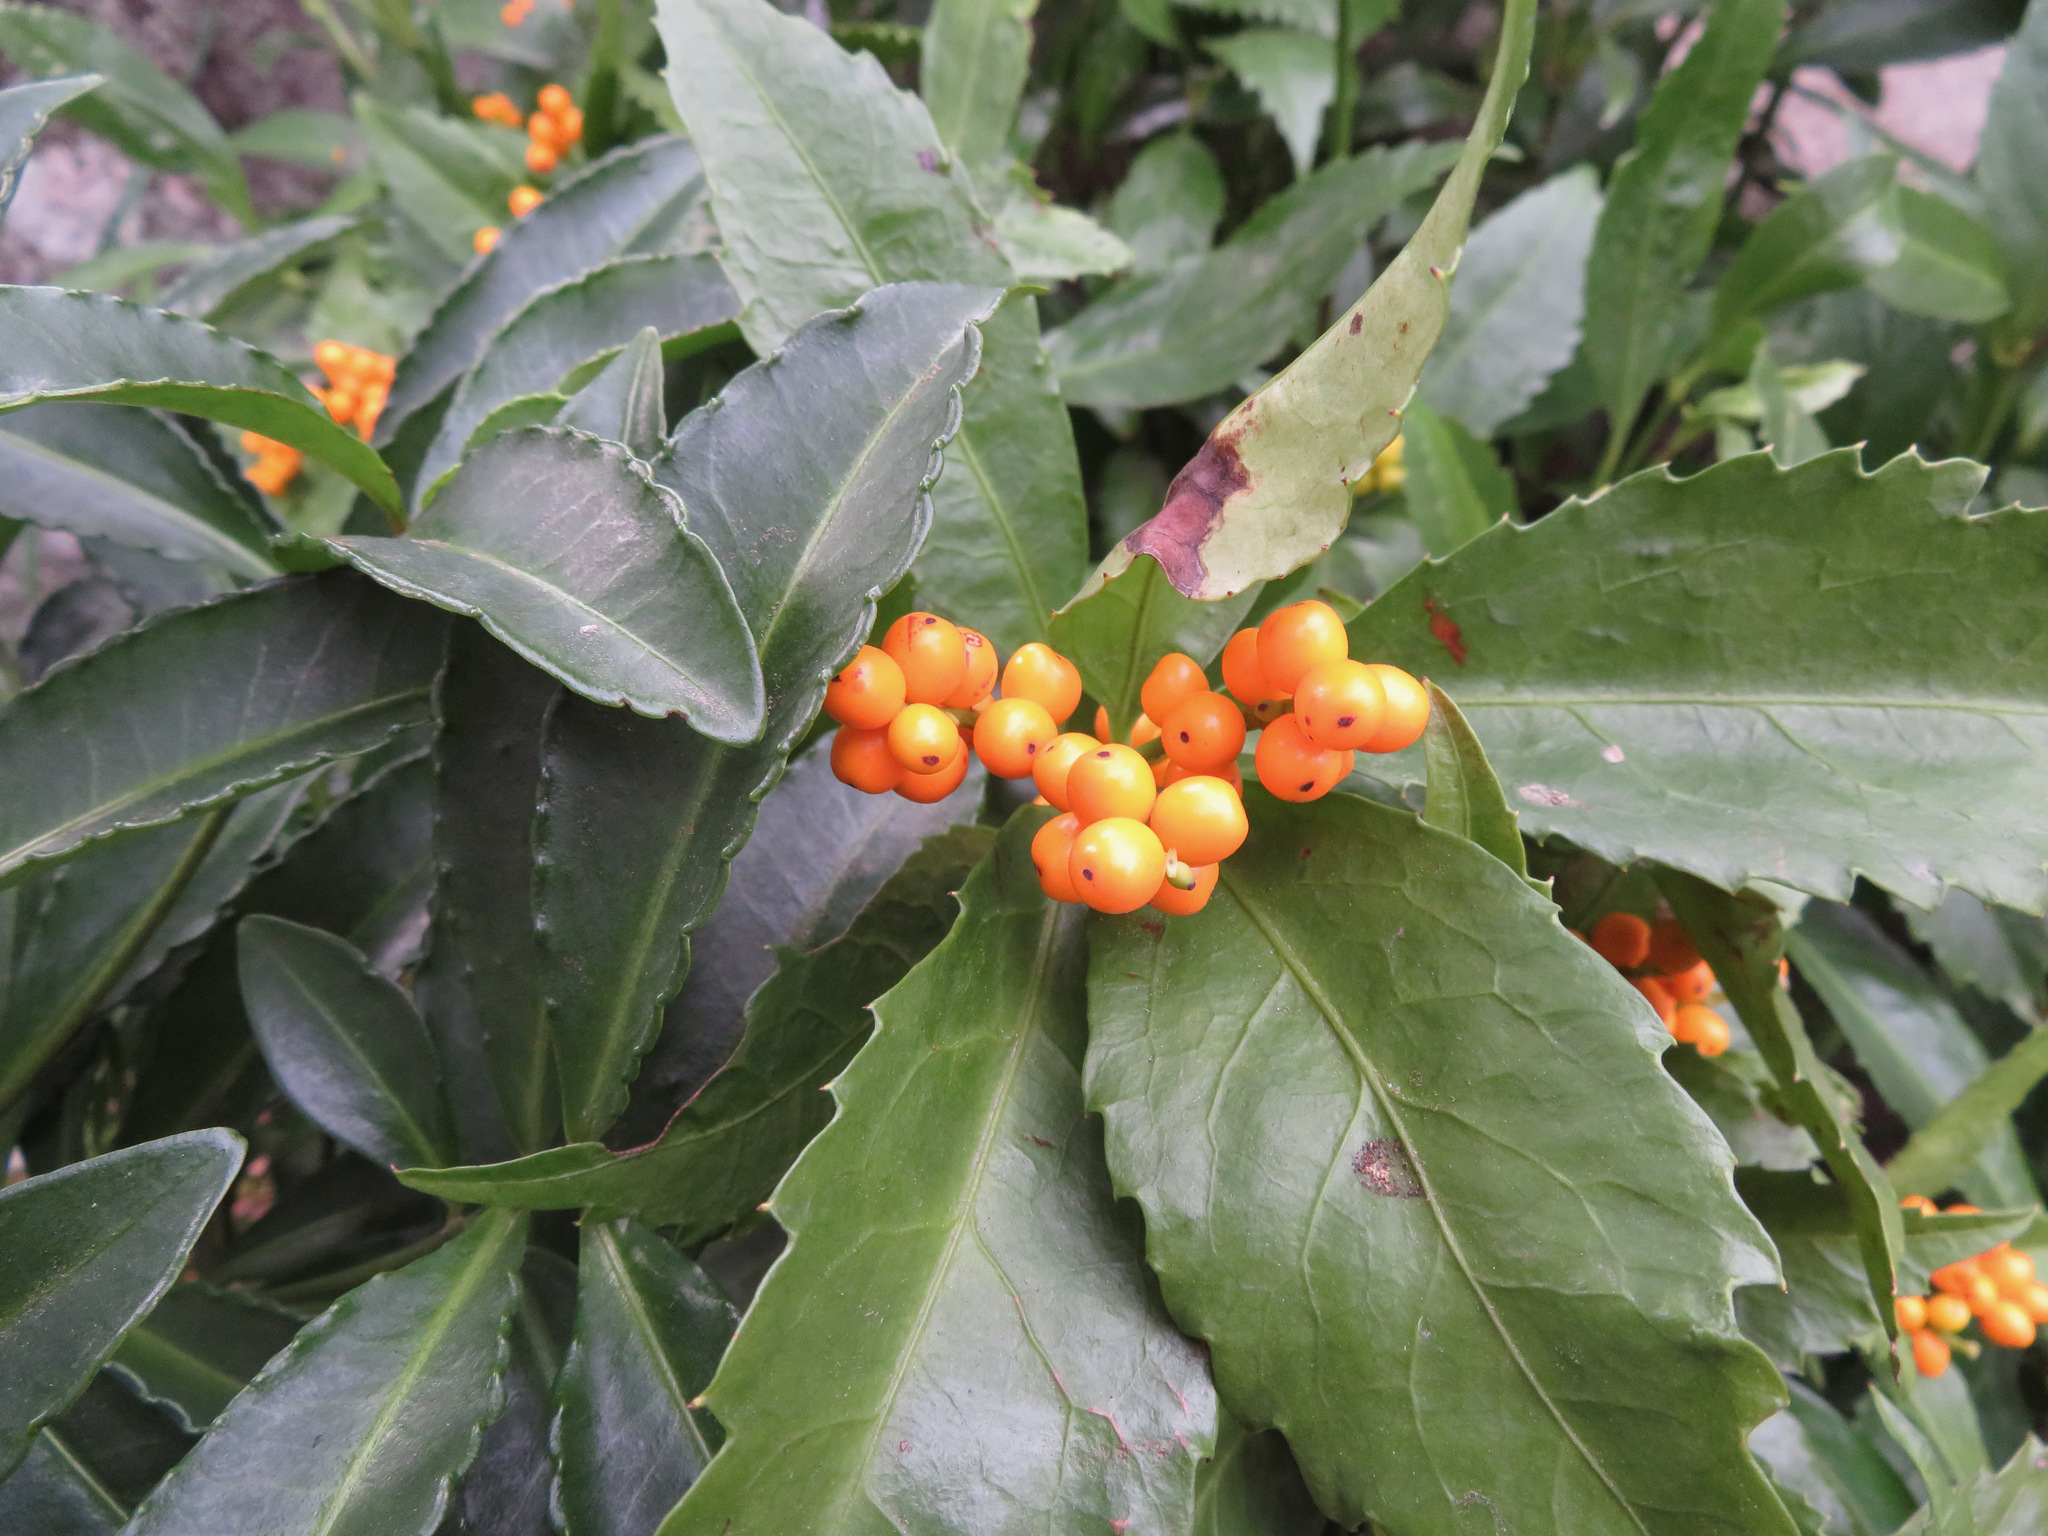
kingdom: Plantae
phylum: Tracheophyta
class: Magnoliopsida
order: Chloranthales
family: Chloranthaceae
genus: Sarcandra
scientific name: Sarcandra glabra
